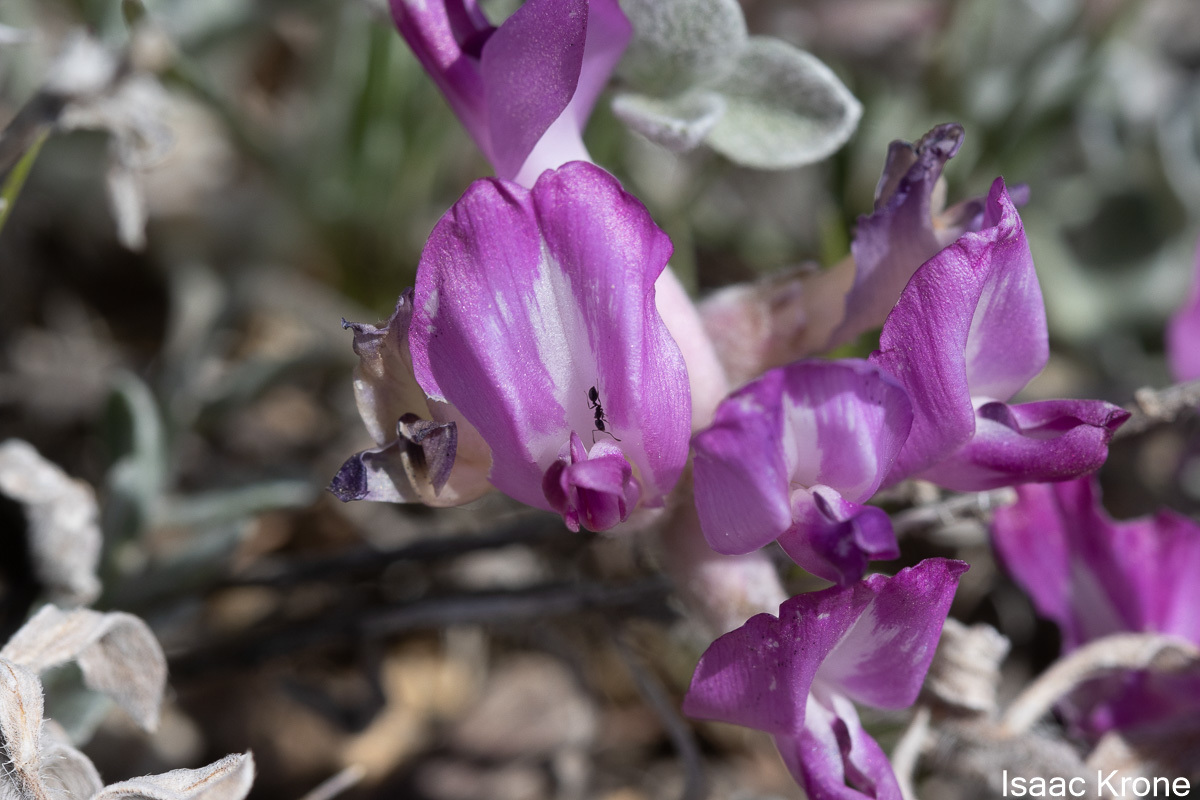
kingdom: Plantae
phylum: Tracheophyta
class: Magnoliopsida
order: Fabales
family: Fabaceae
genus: Astragalus
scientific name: Astragalus utahensis
